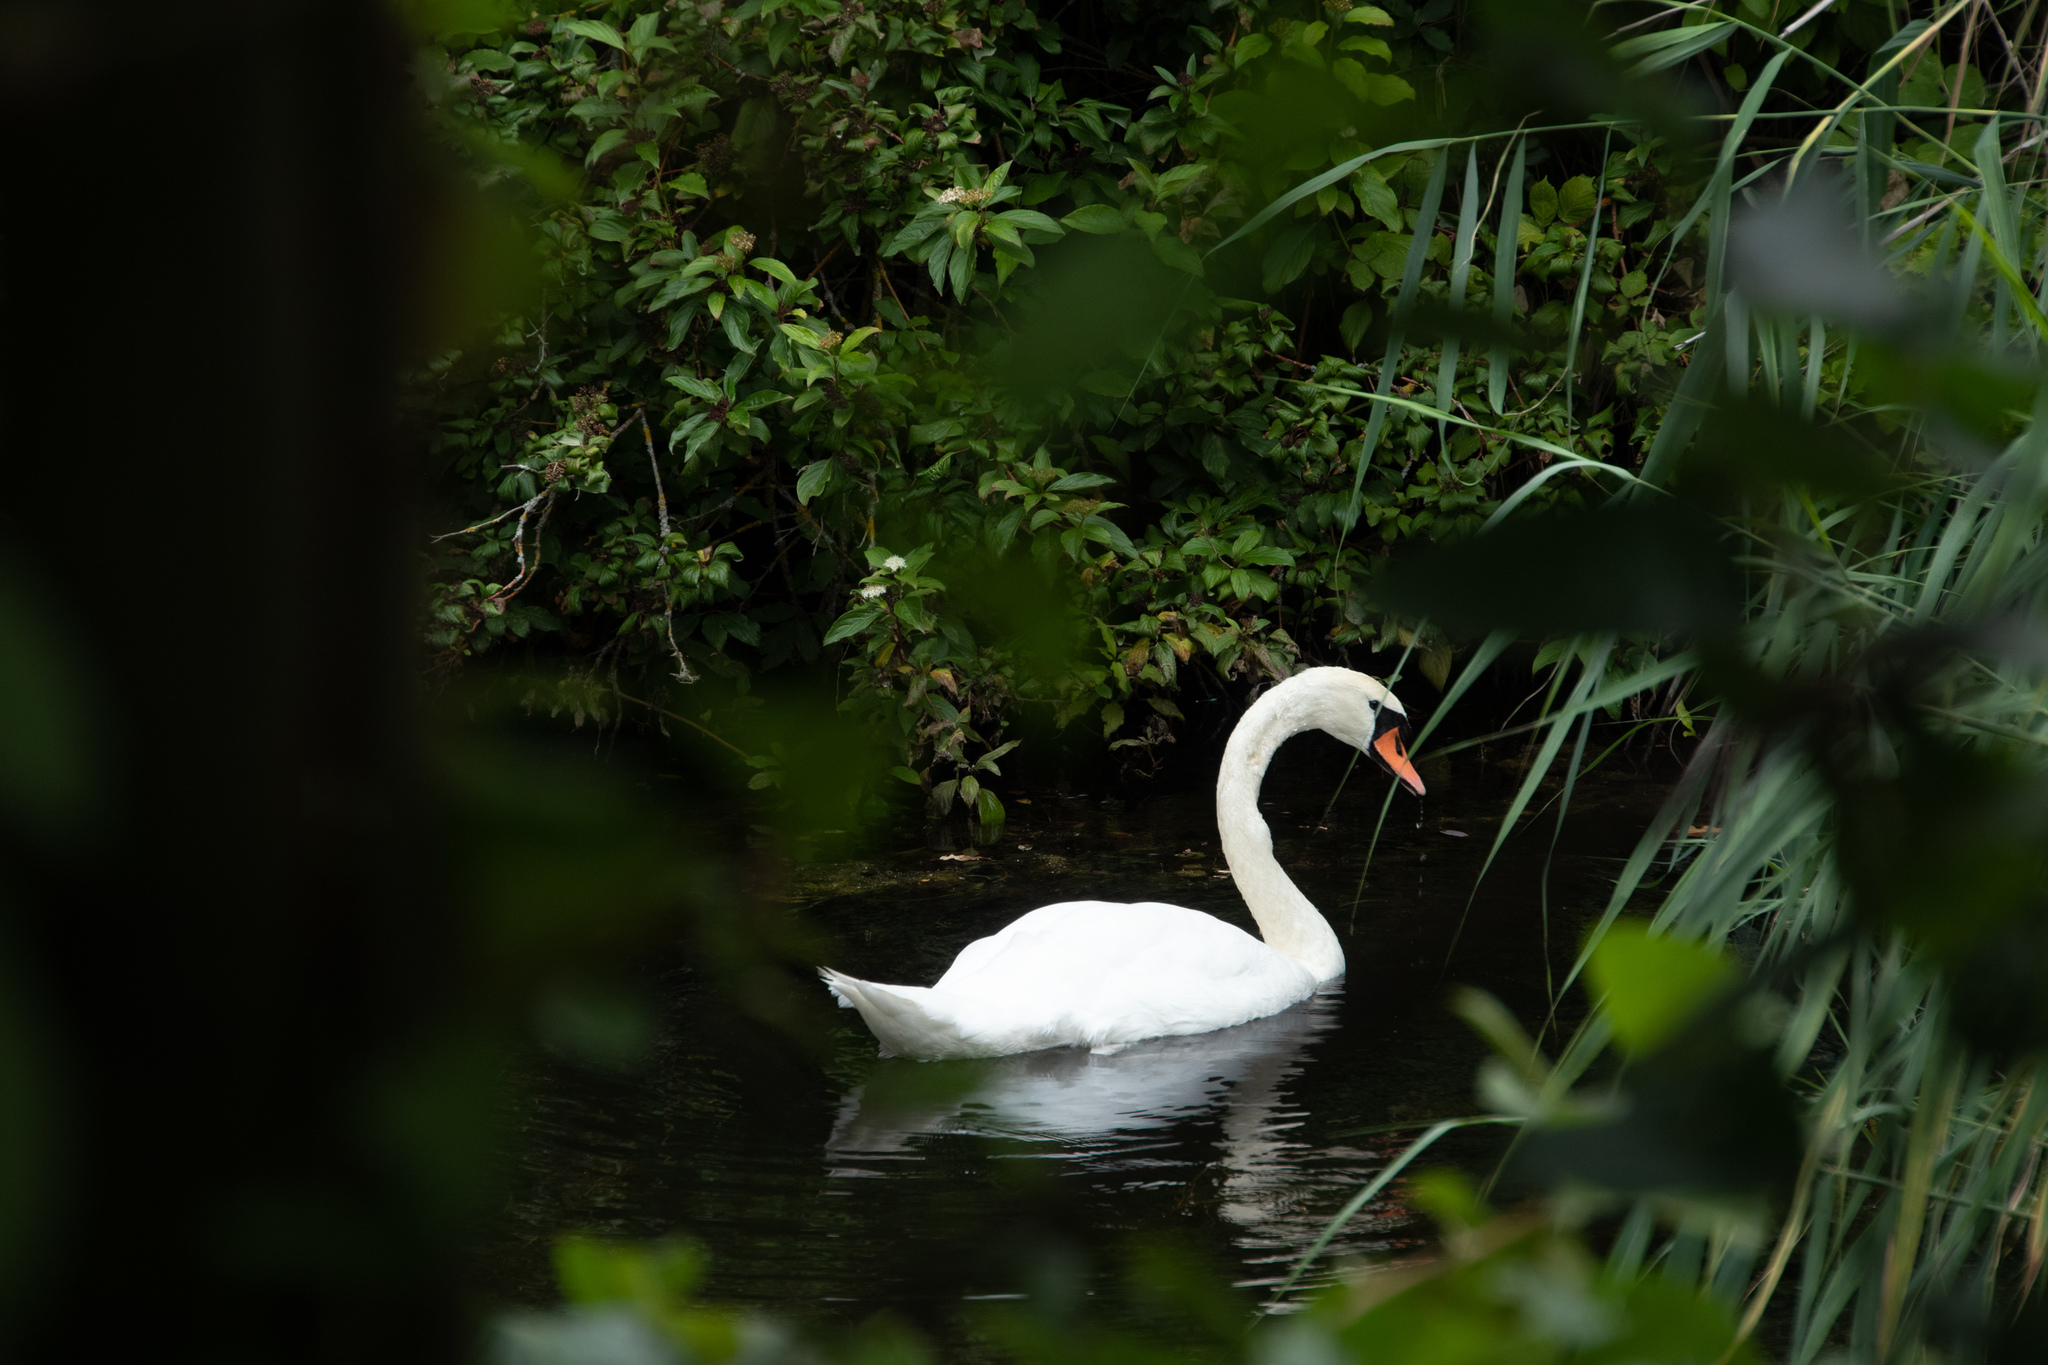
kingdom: Animalia
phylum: Chordata
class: Aves
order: Anseriformes
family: Anatidae
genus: Cygnus
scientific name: Cygnus olor
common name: Mute swan
